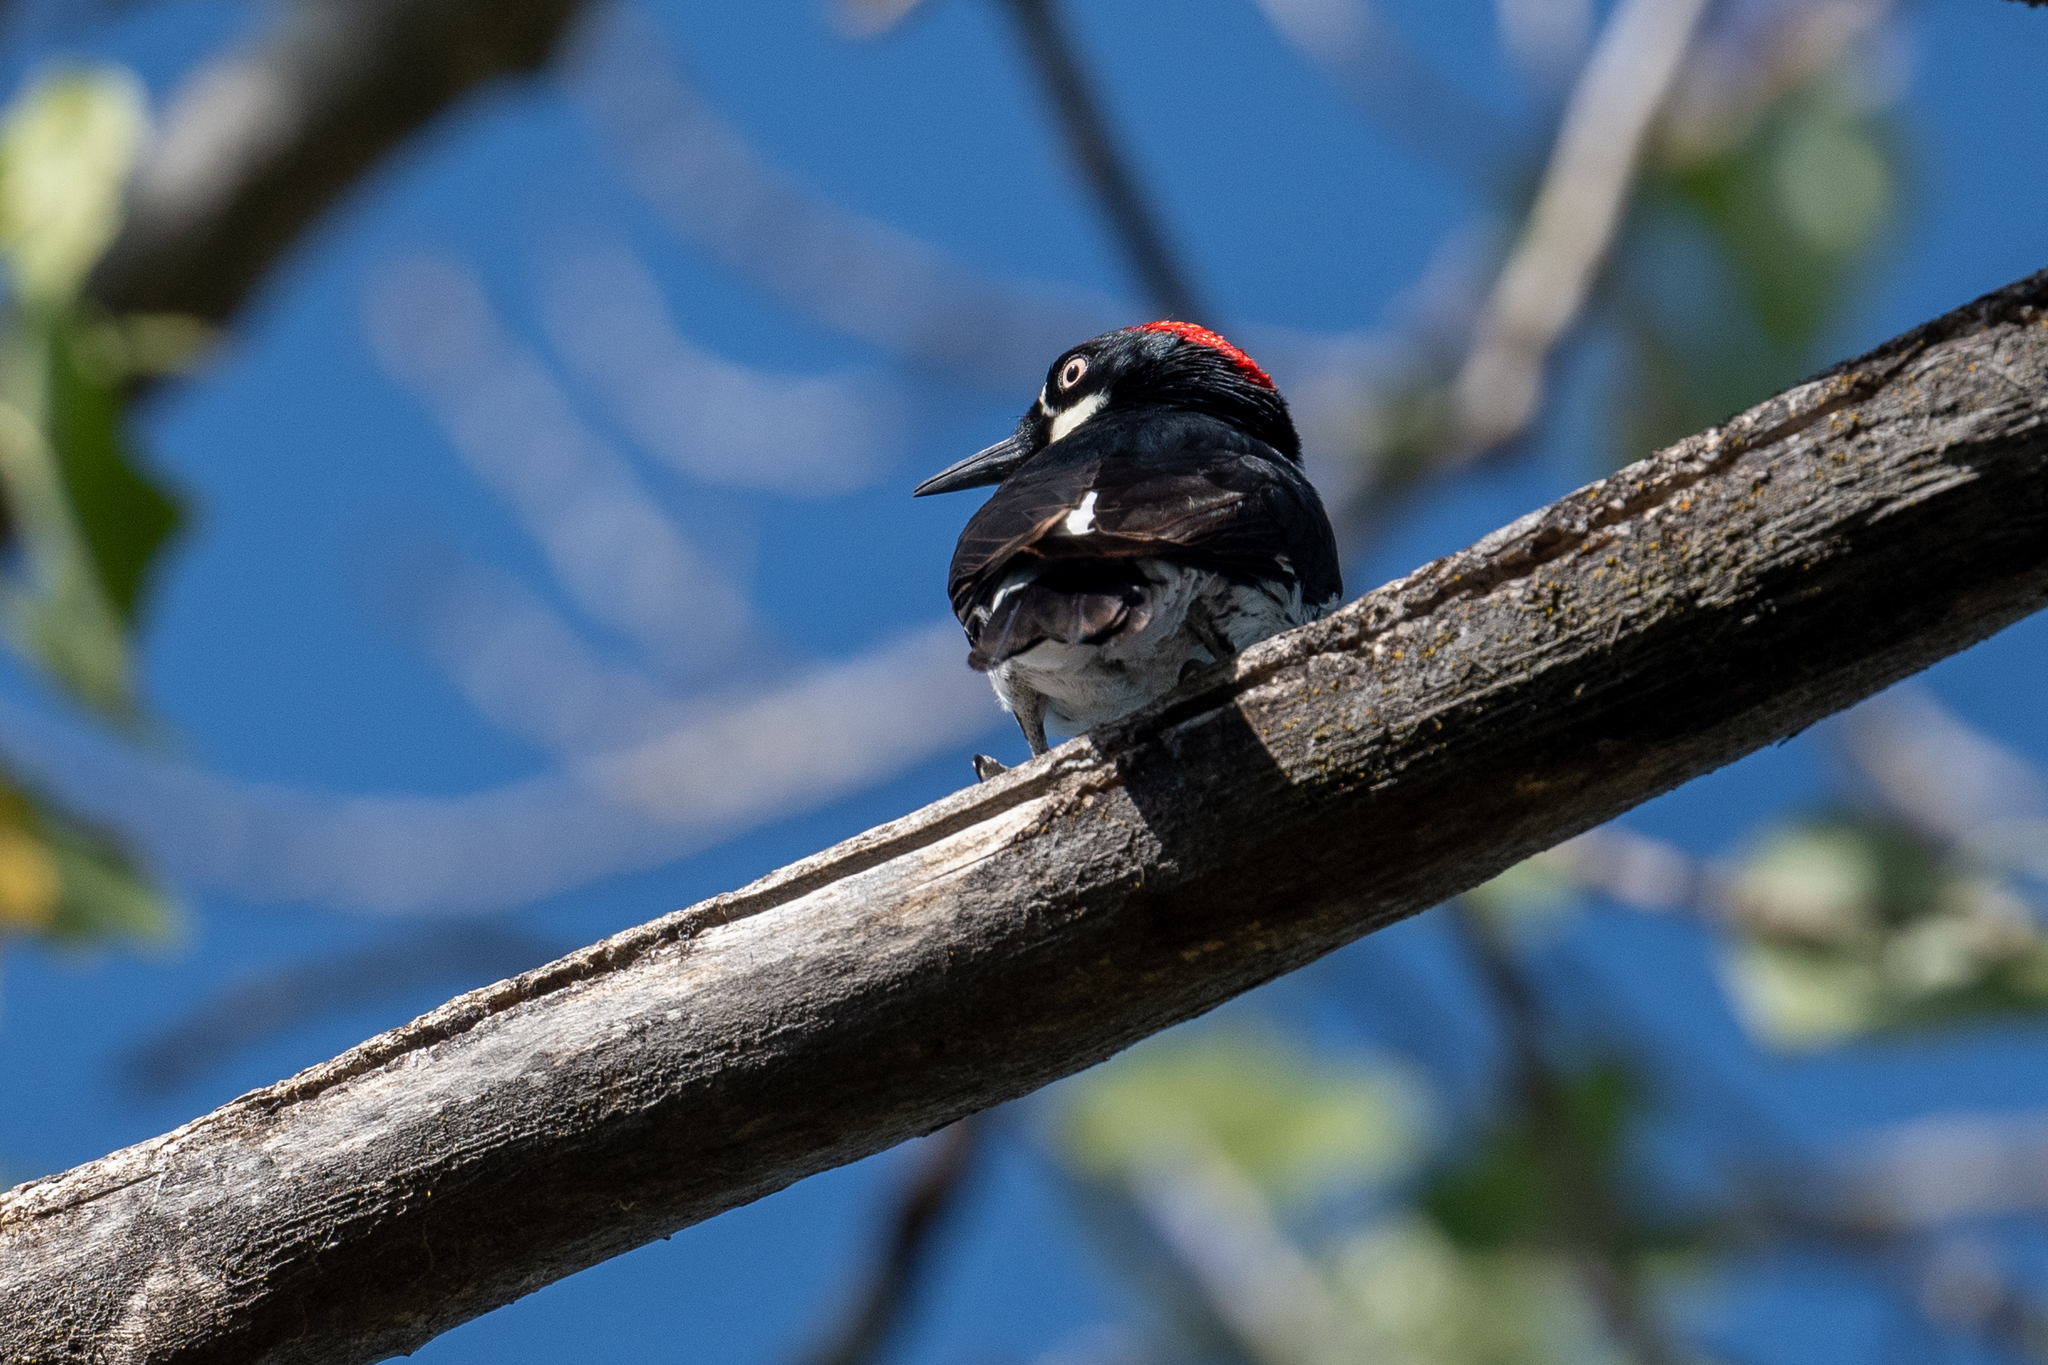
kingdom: Animalia
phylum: Chordata
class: Aves
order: Piciformes
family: Picidae
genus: Melanerpes
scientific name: Melanerpes formicivorus
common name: Acorn woodpecker
